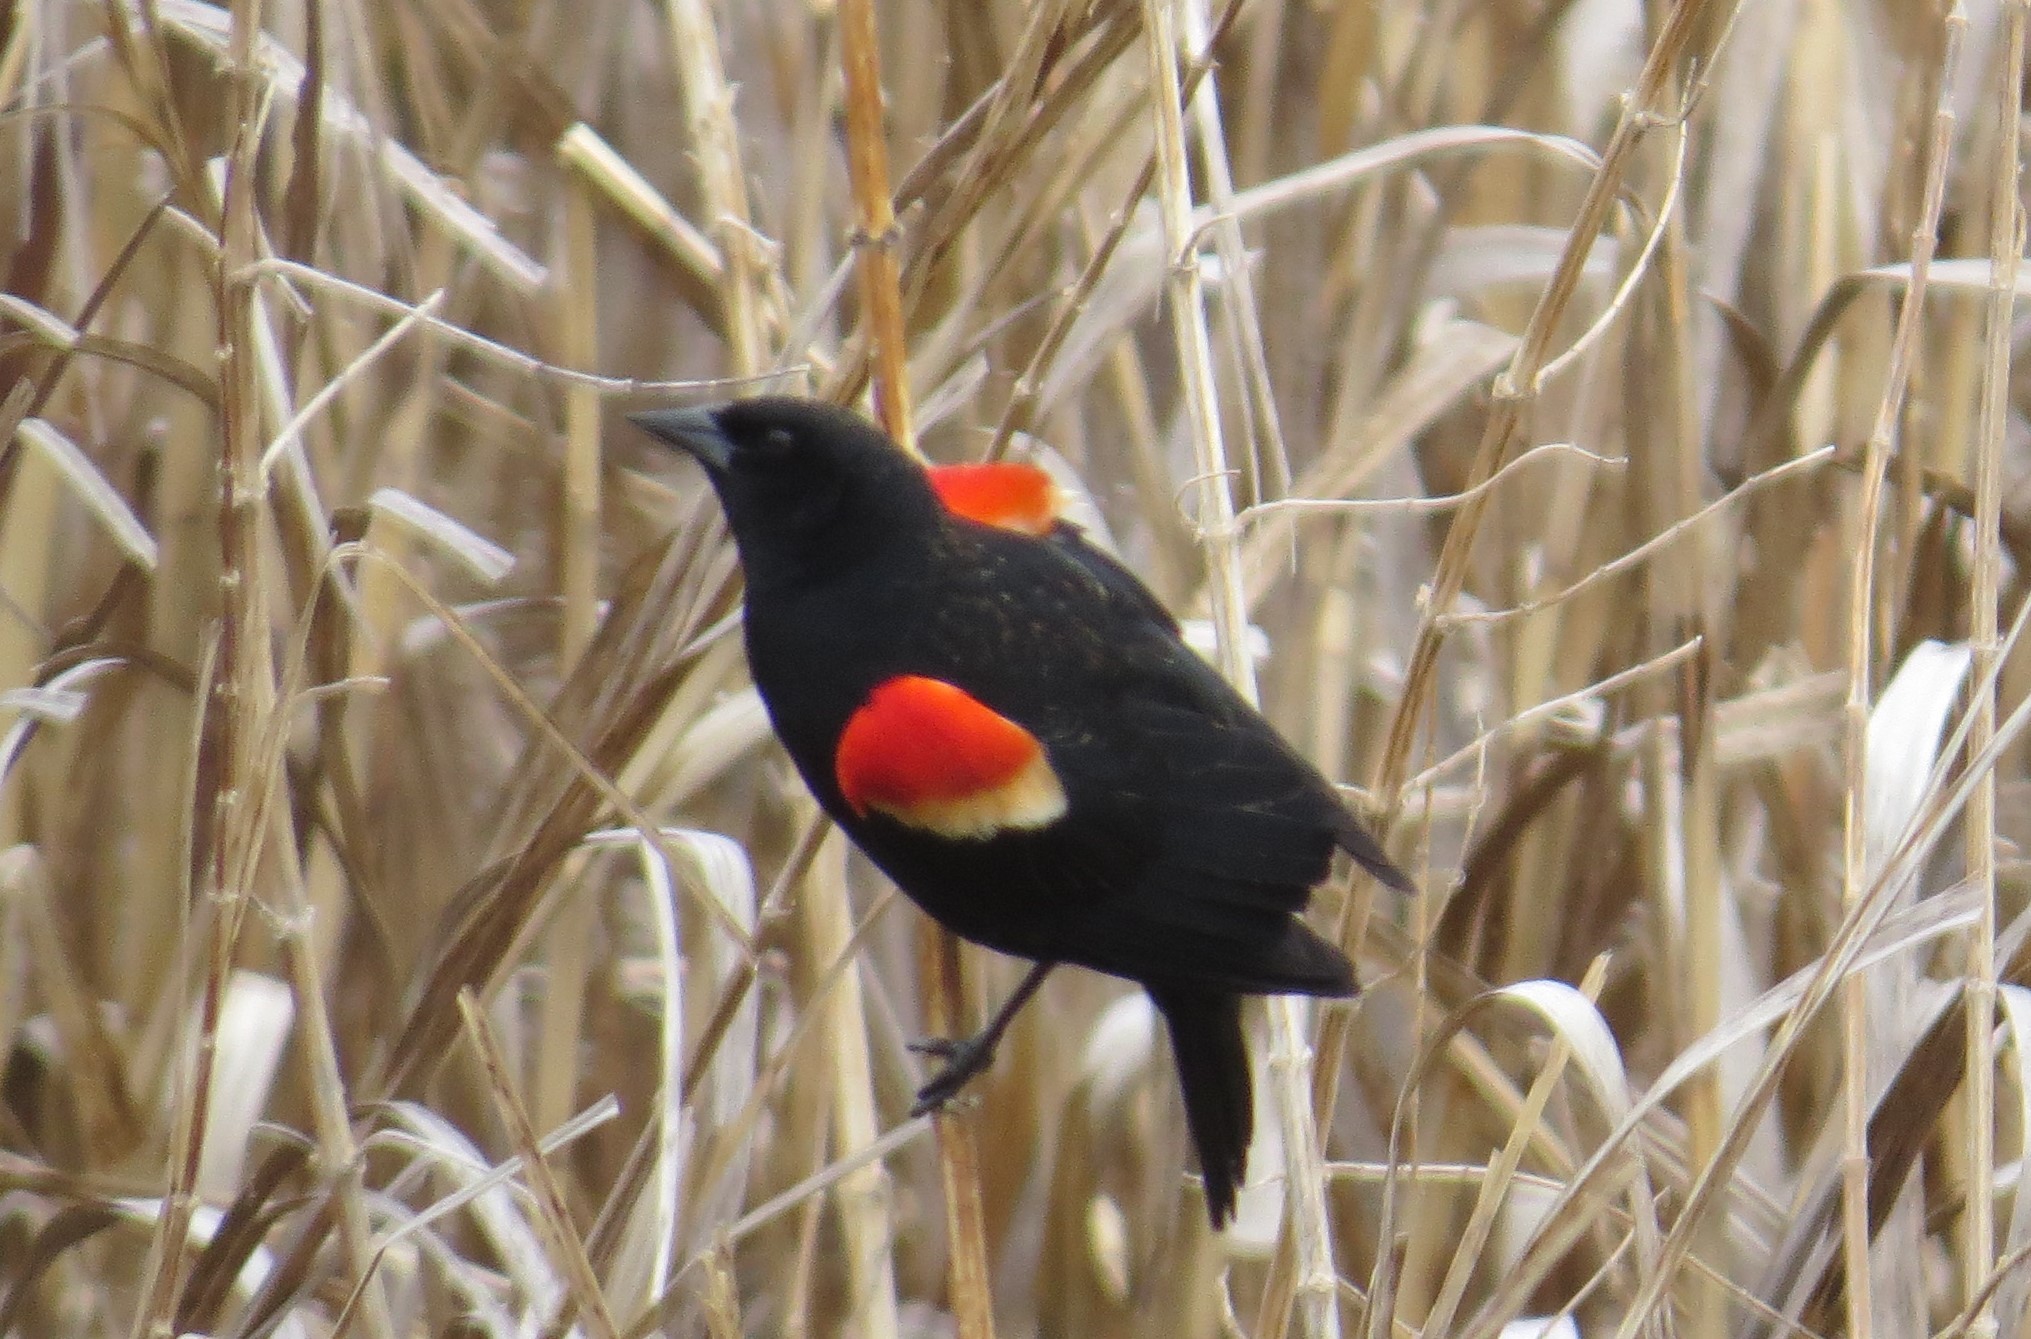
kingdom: Animalia
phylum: Chordata
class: Aves
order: Passeriformes
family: Icteridae
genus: Agelaius
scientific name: Agelaius phoeniceus
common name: Red-winged blackbird
